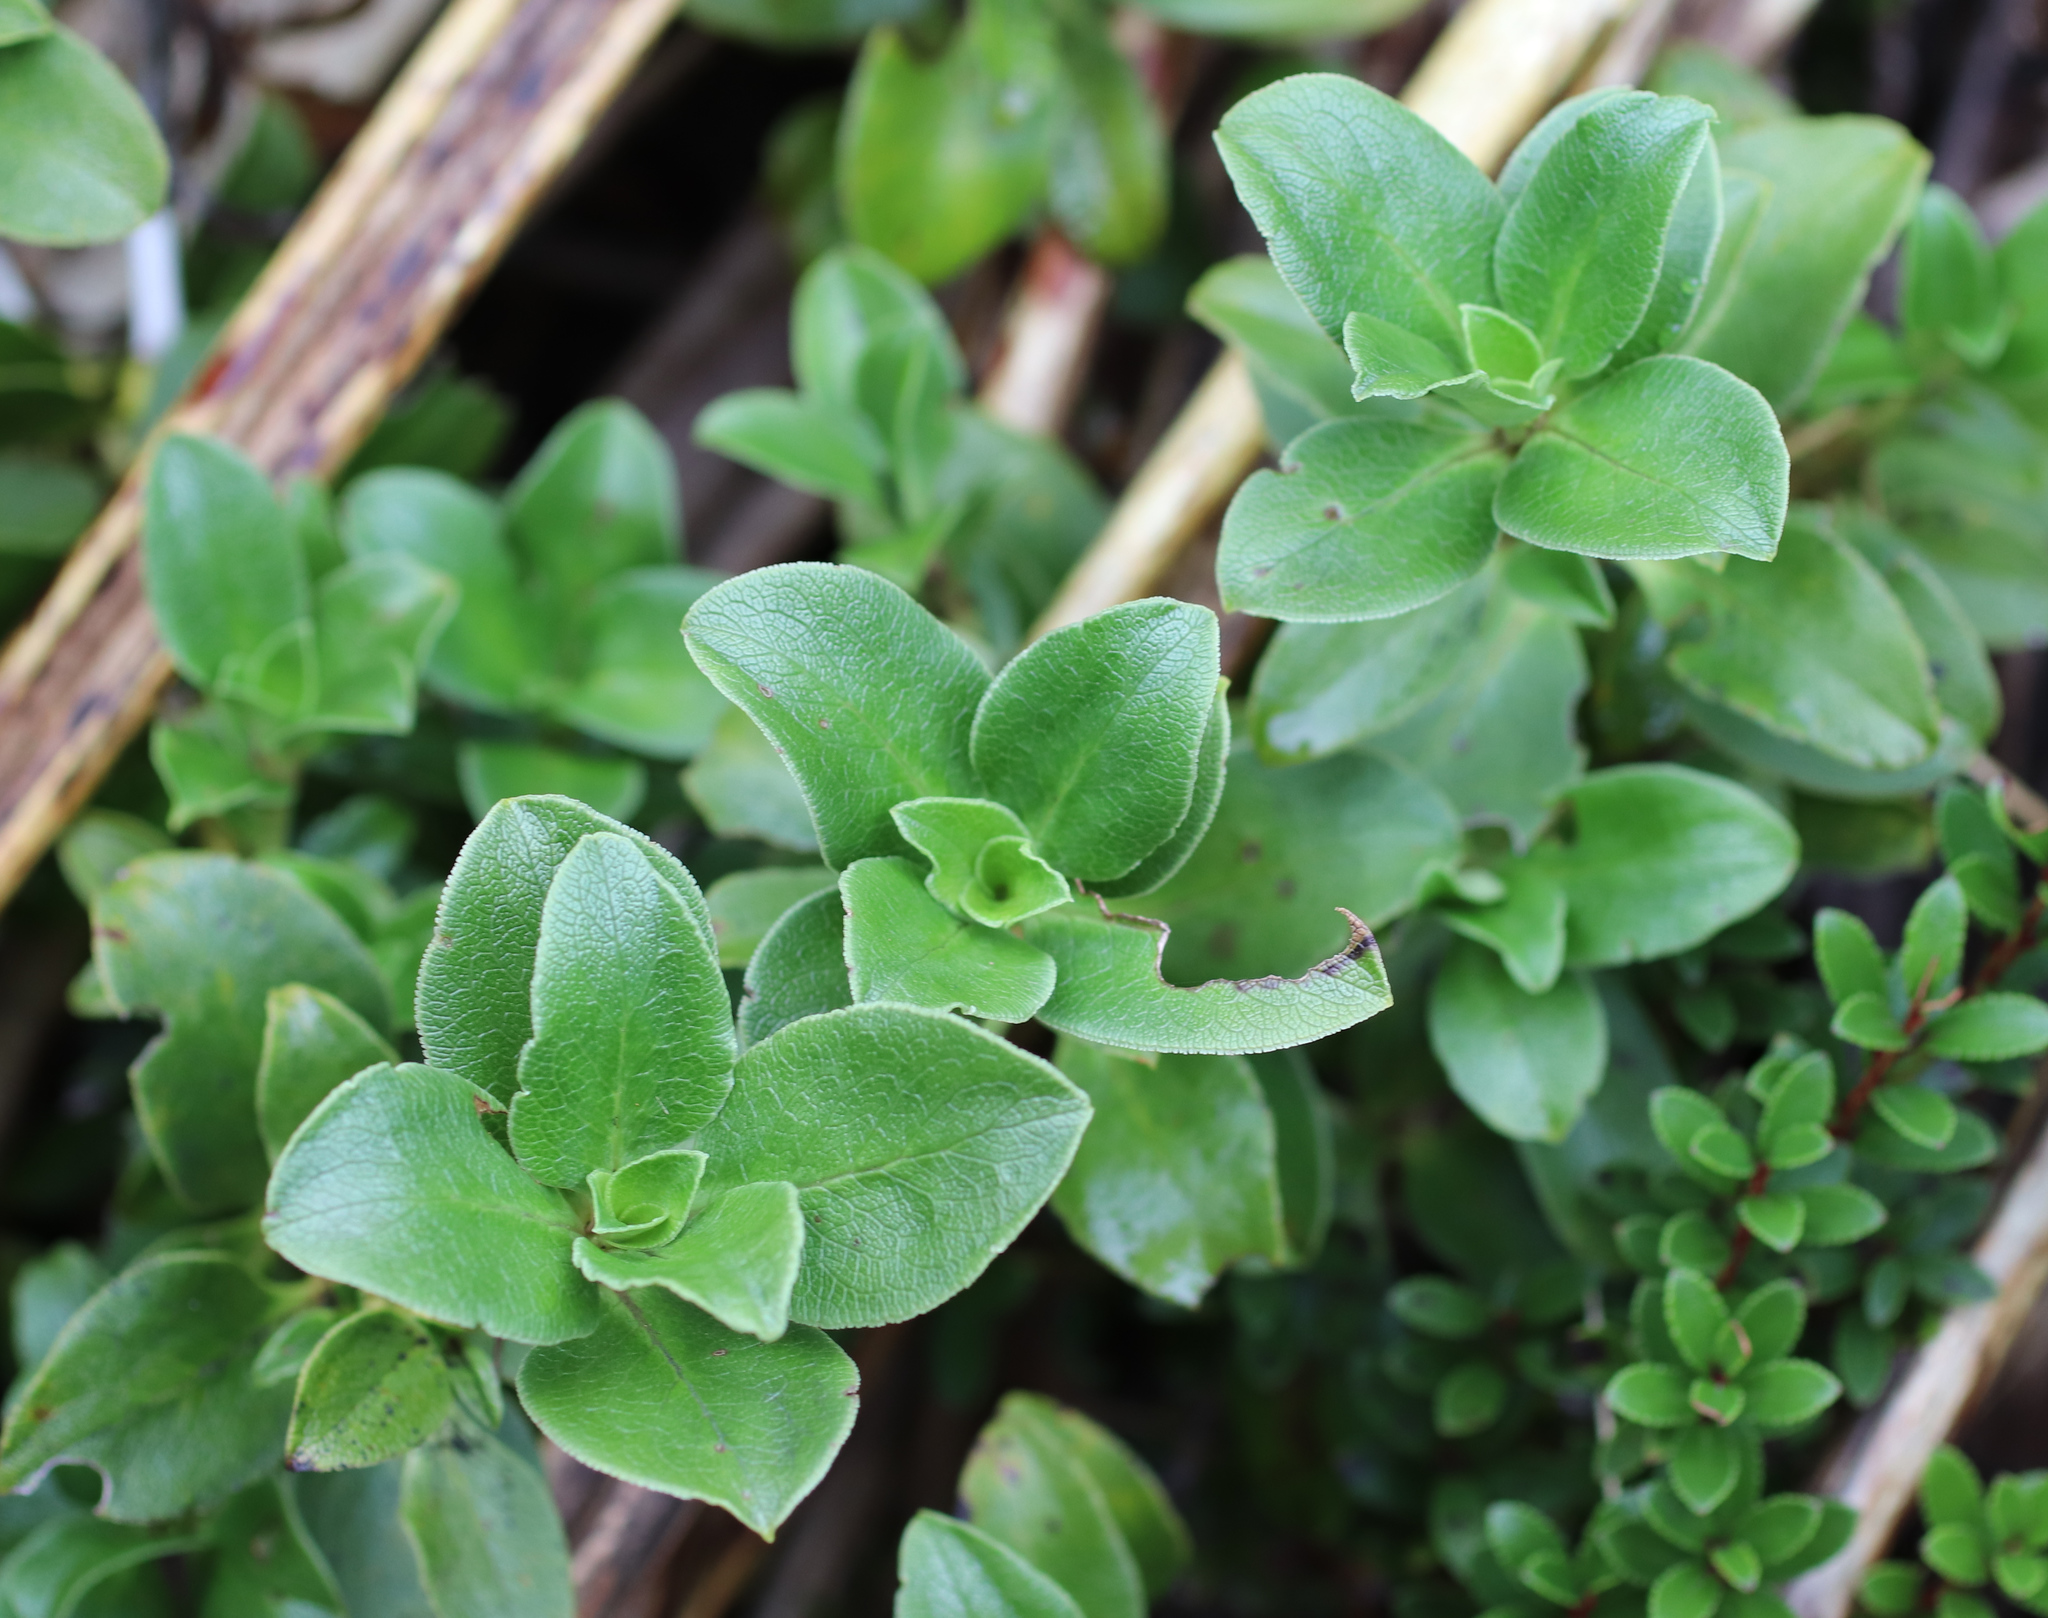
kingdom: Plantae
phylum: Tracheophyta
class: Magnoliopsida
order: Gentianales
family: Rubiaceae
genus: Coprosma
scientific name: Coprosma serrulata
